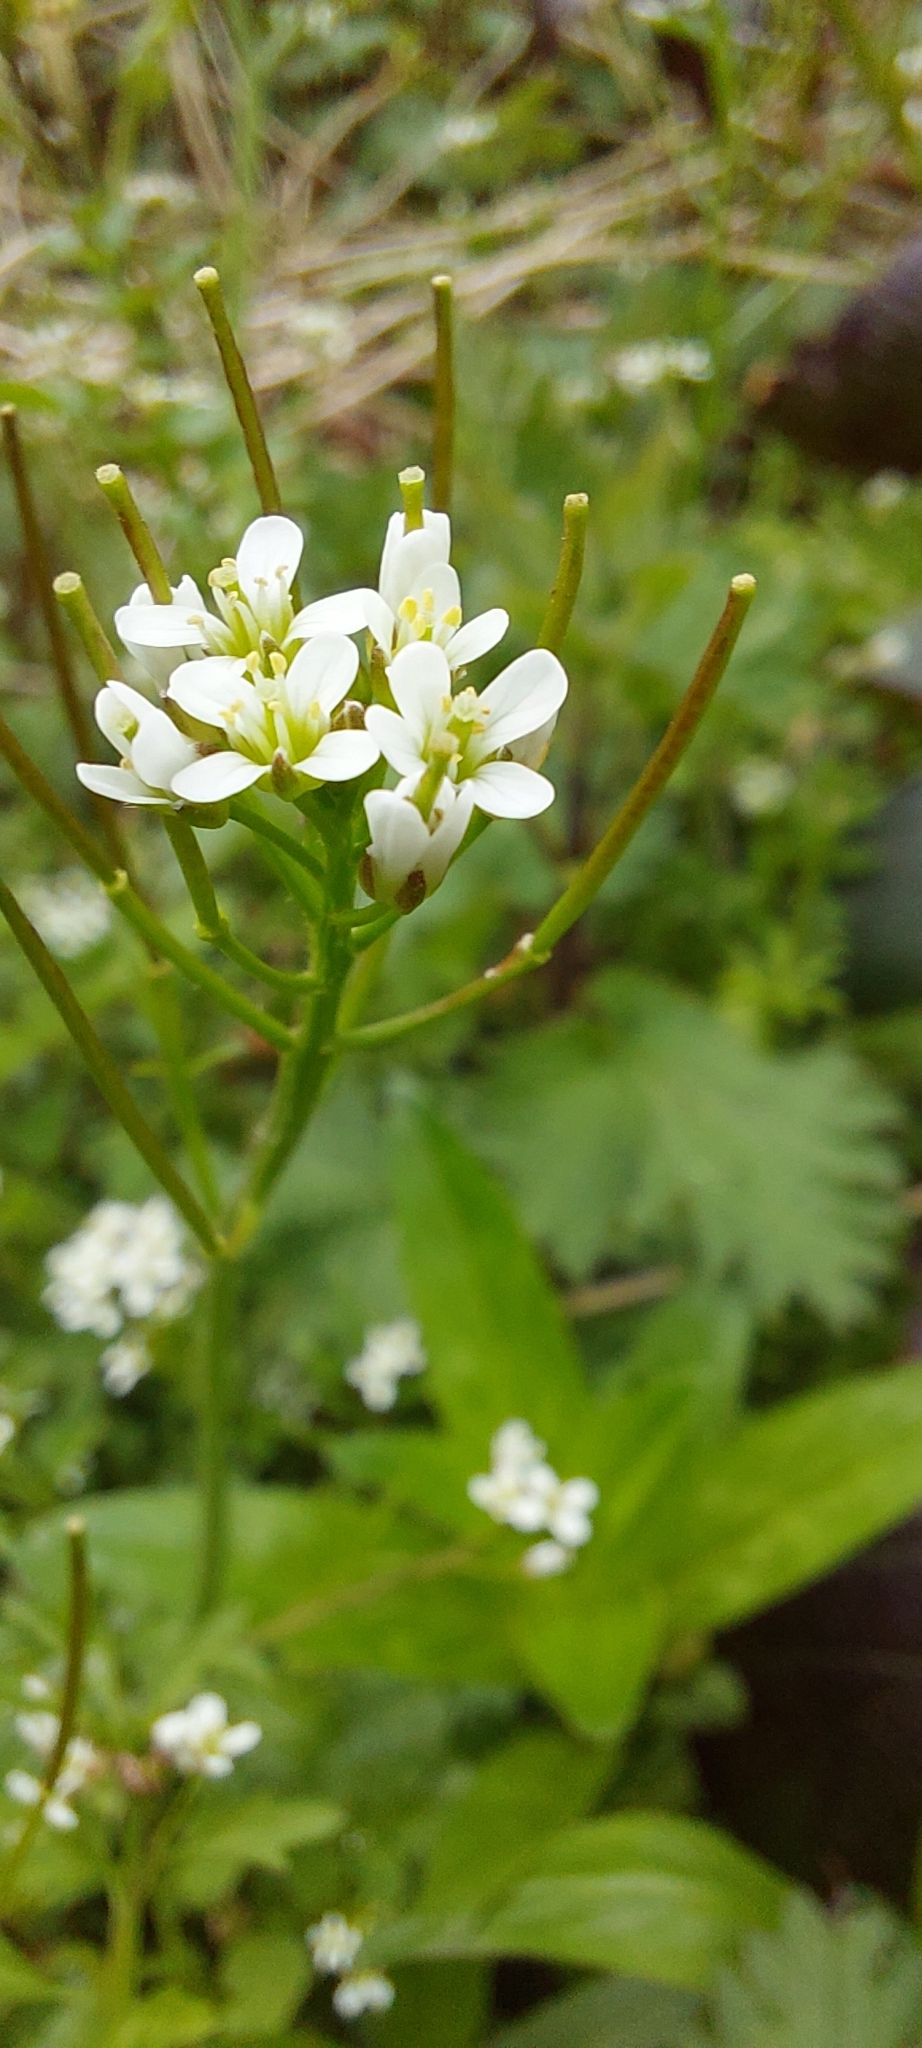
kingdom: Plantae
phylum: Tracheophyta
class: Magnoliopsida
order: Brassicales
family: Brassicaceae
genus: Cardamine
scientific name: Cardamine flexuosa
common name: Woodland bittercress
